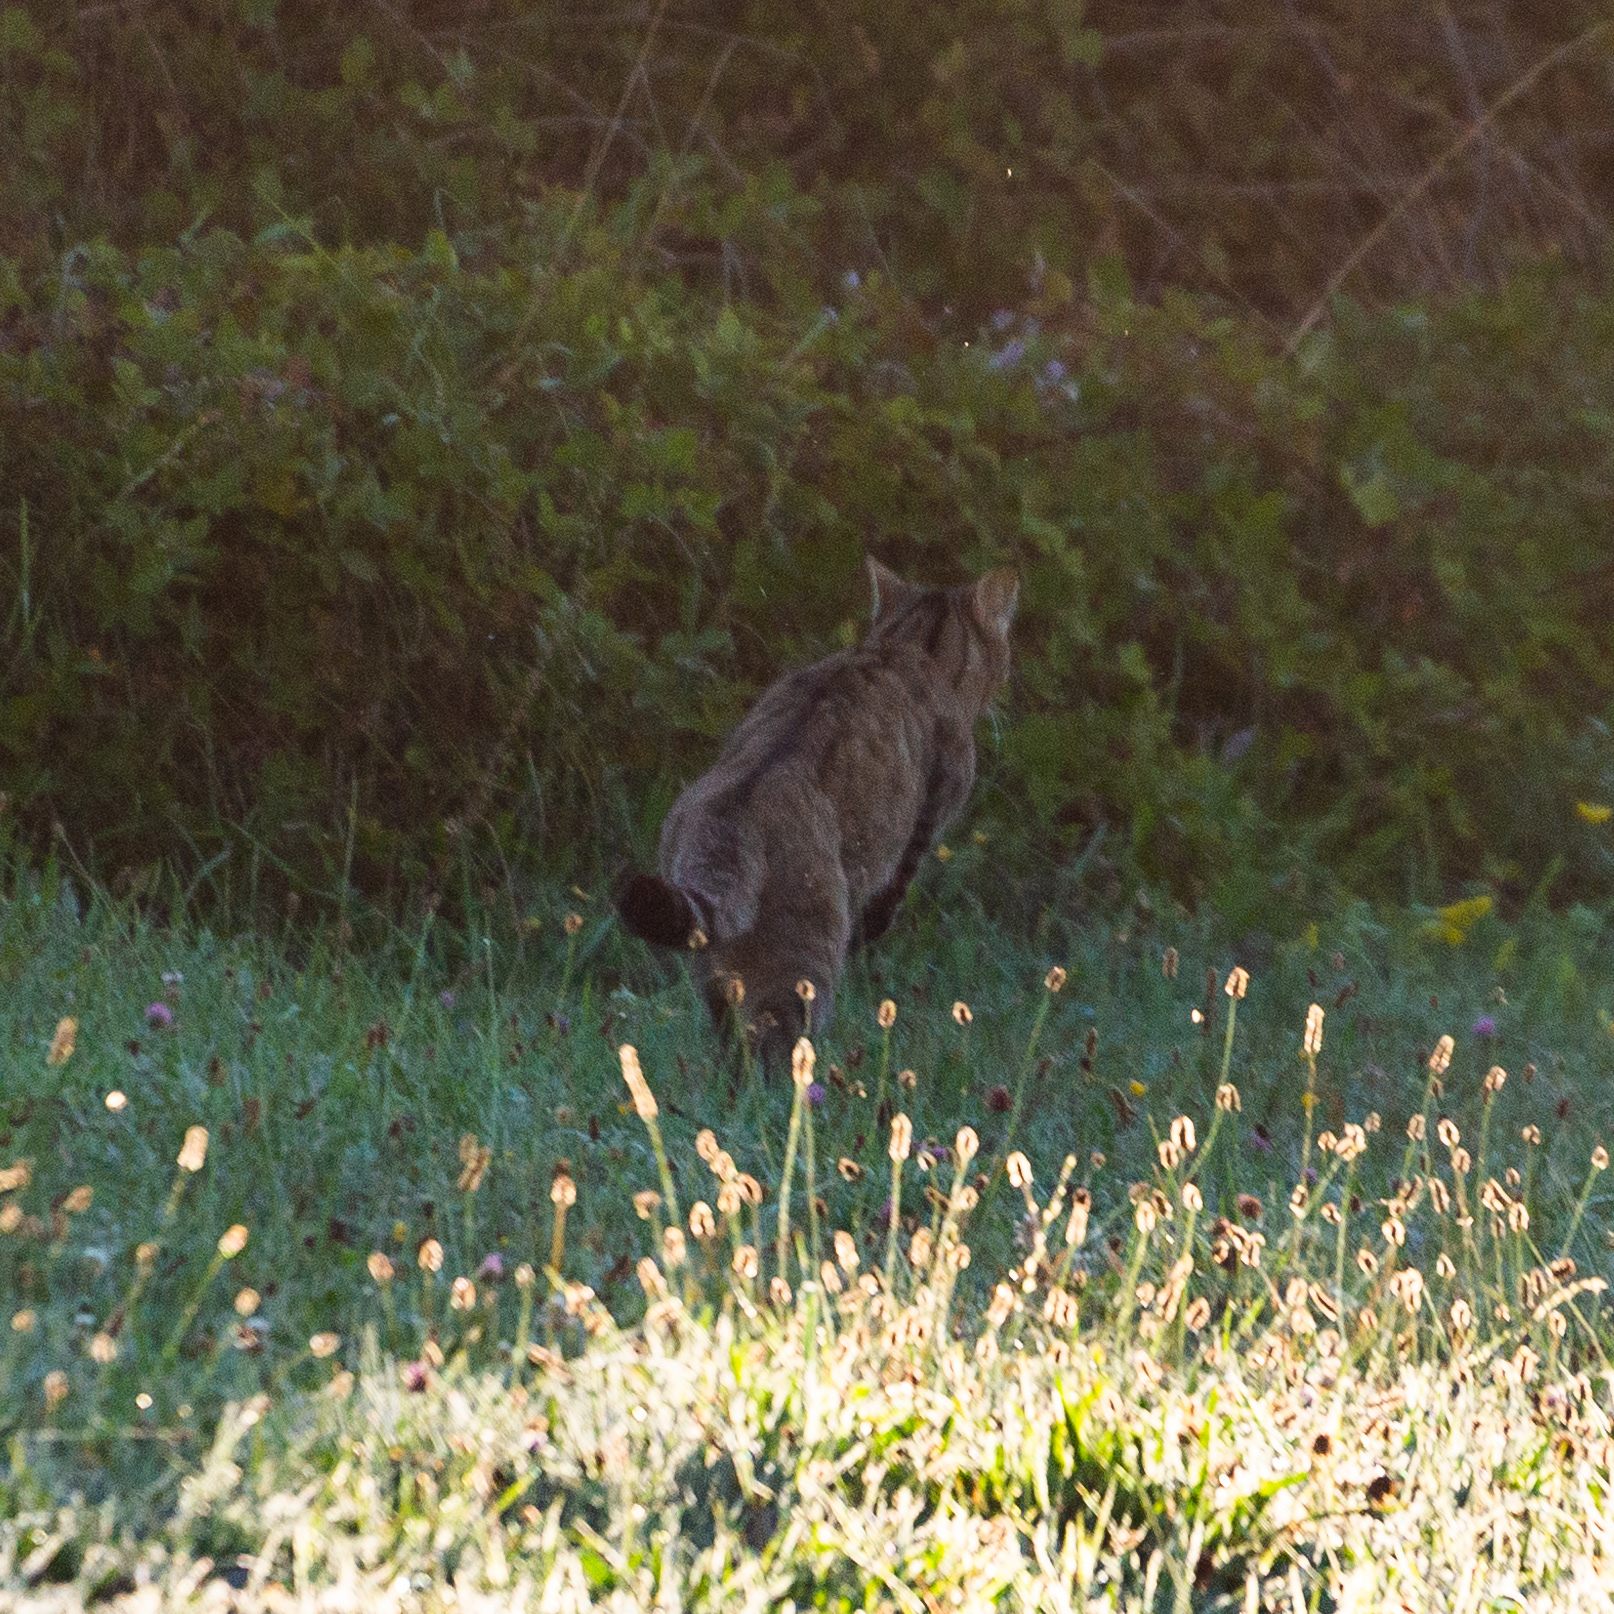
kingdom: Animalia
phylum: Chordata
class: Mammalia
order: Carnivora
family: Felidae
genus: Felis
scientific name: Felis silvestris
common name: Wildcat
